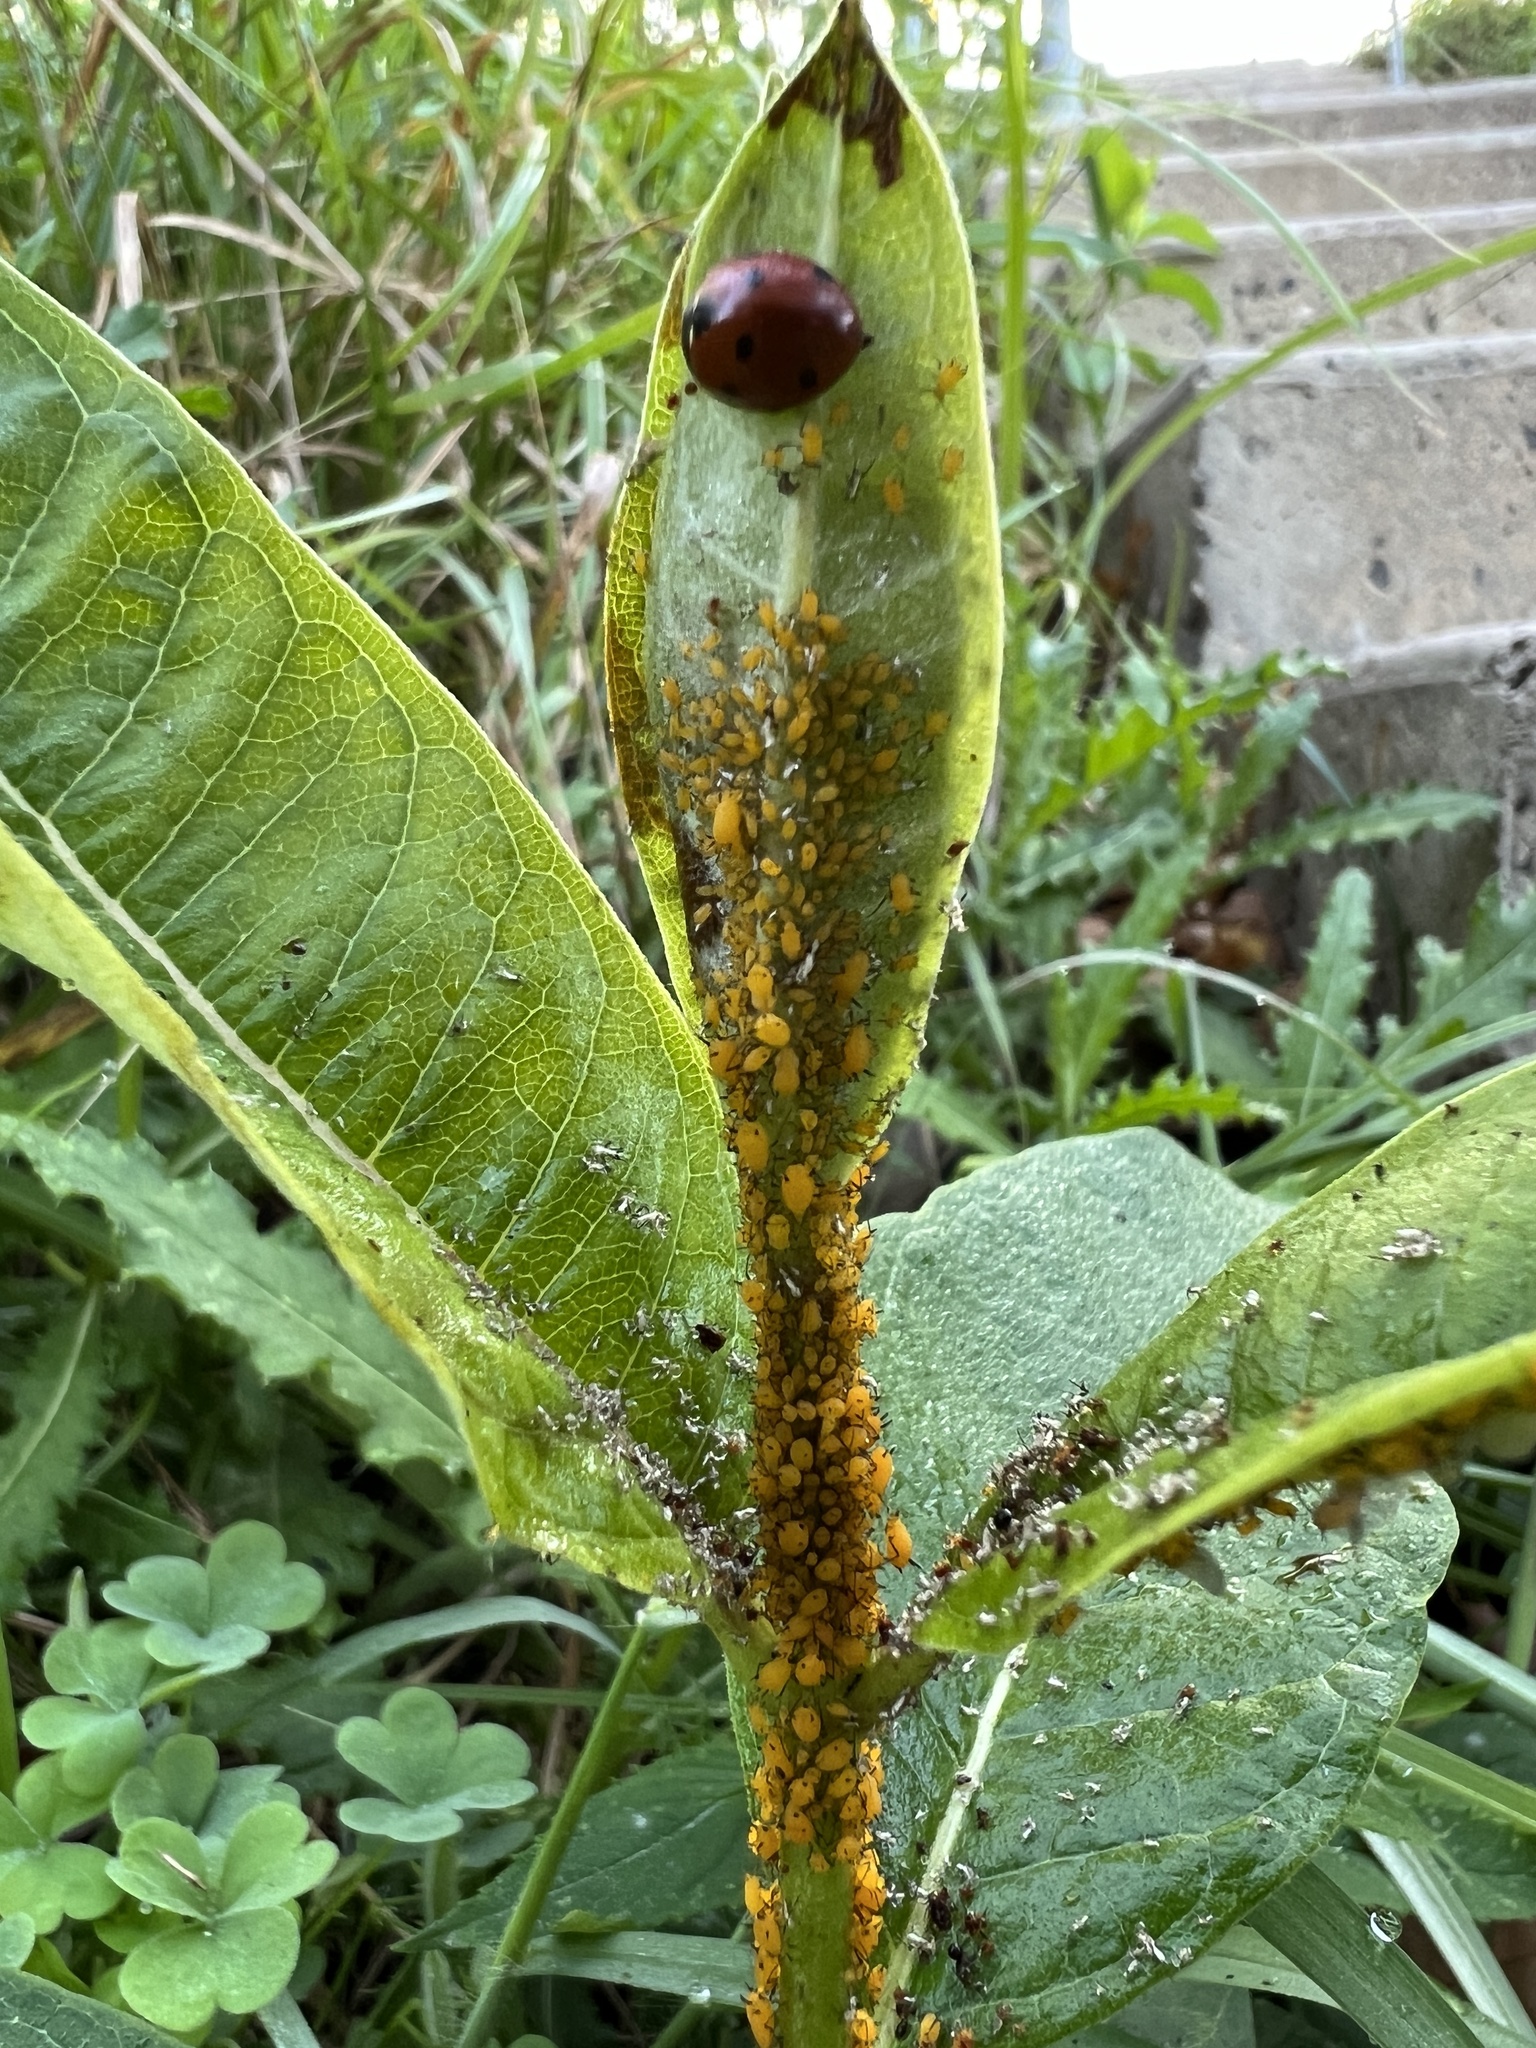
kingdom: Animalia
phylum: Arthropoda
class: Insecta
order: Coleoptera
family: Coccinellidae
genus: Coccinella
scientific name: Coccinella septempunctata
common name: Sevenspotted lady beetle
